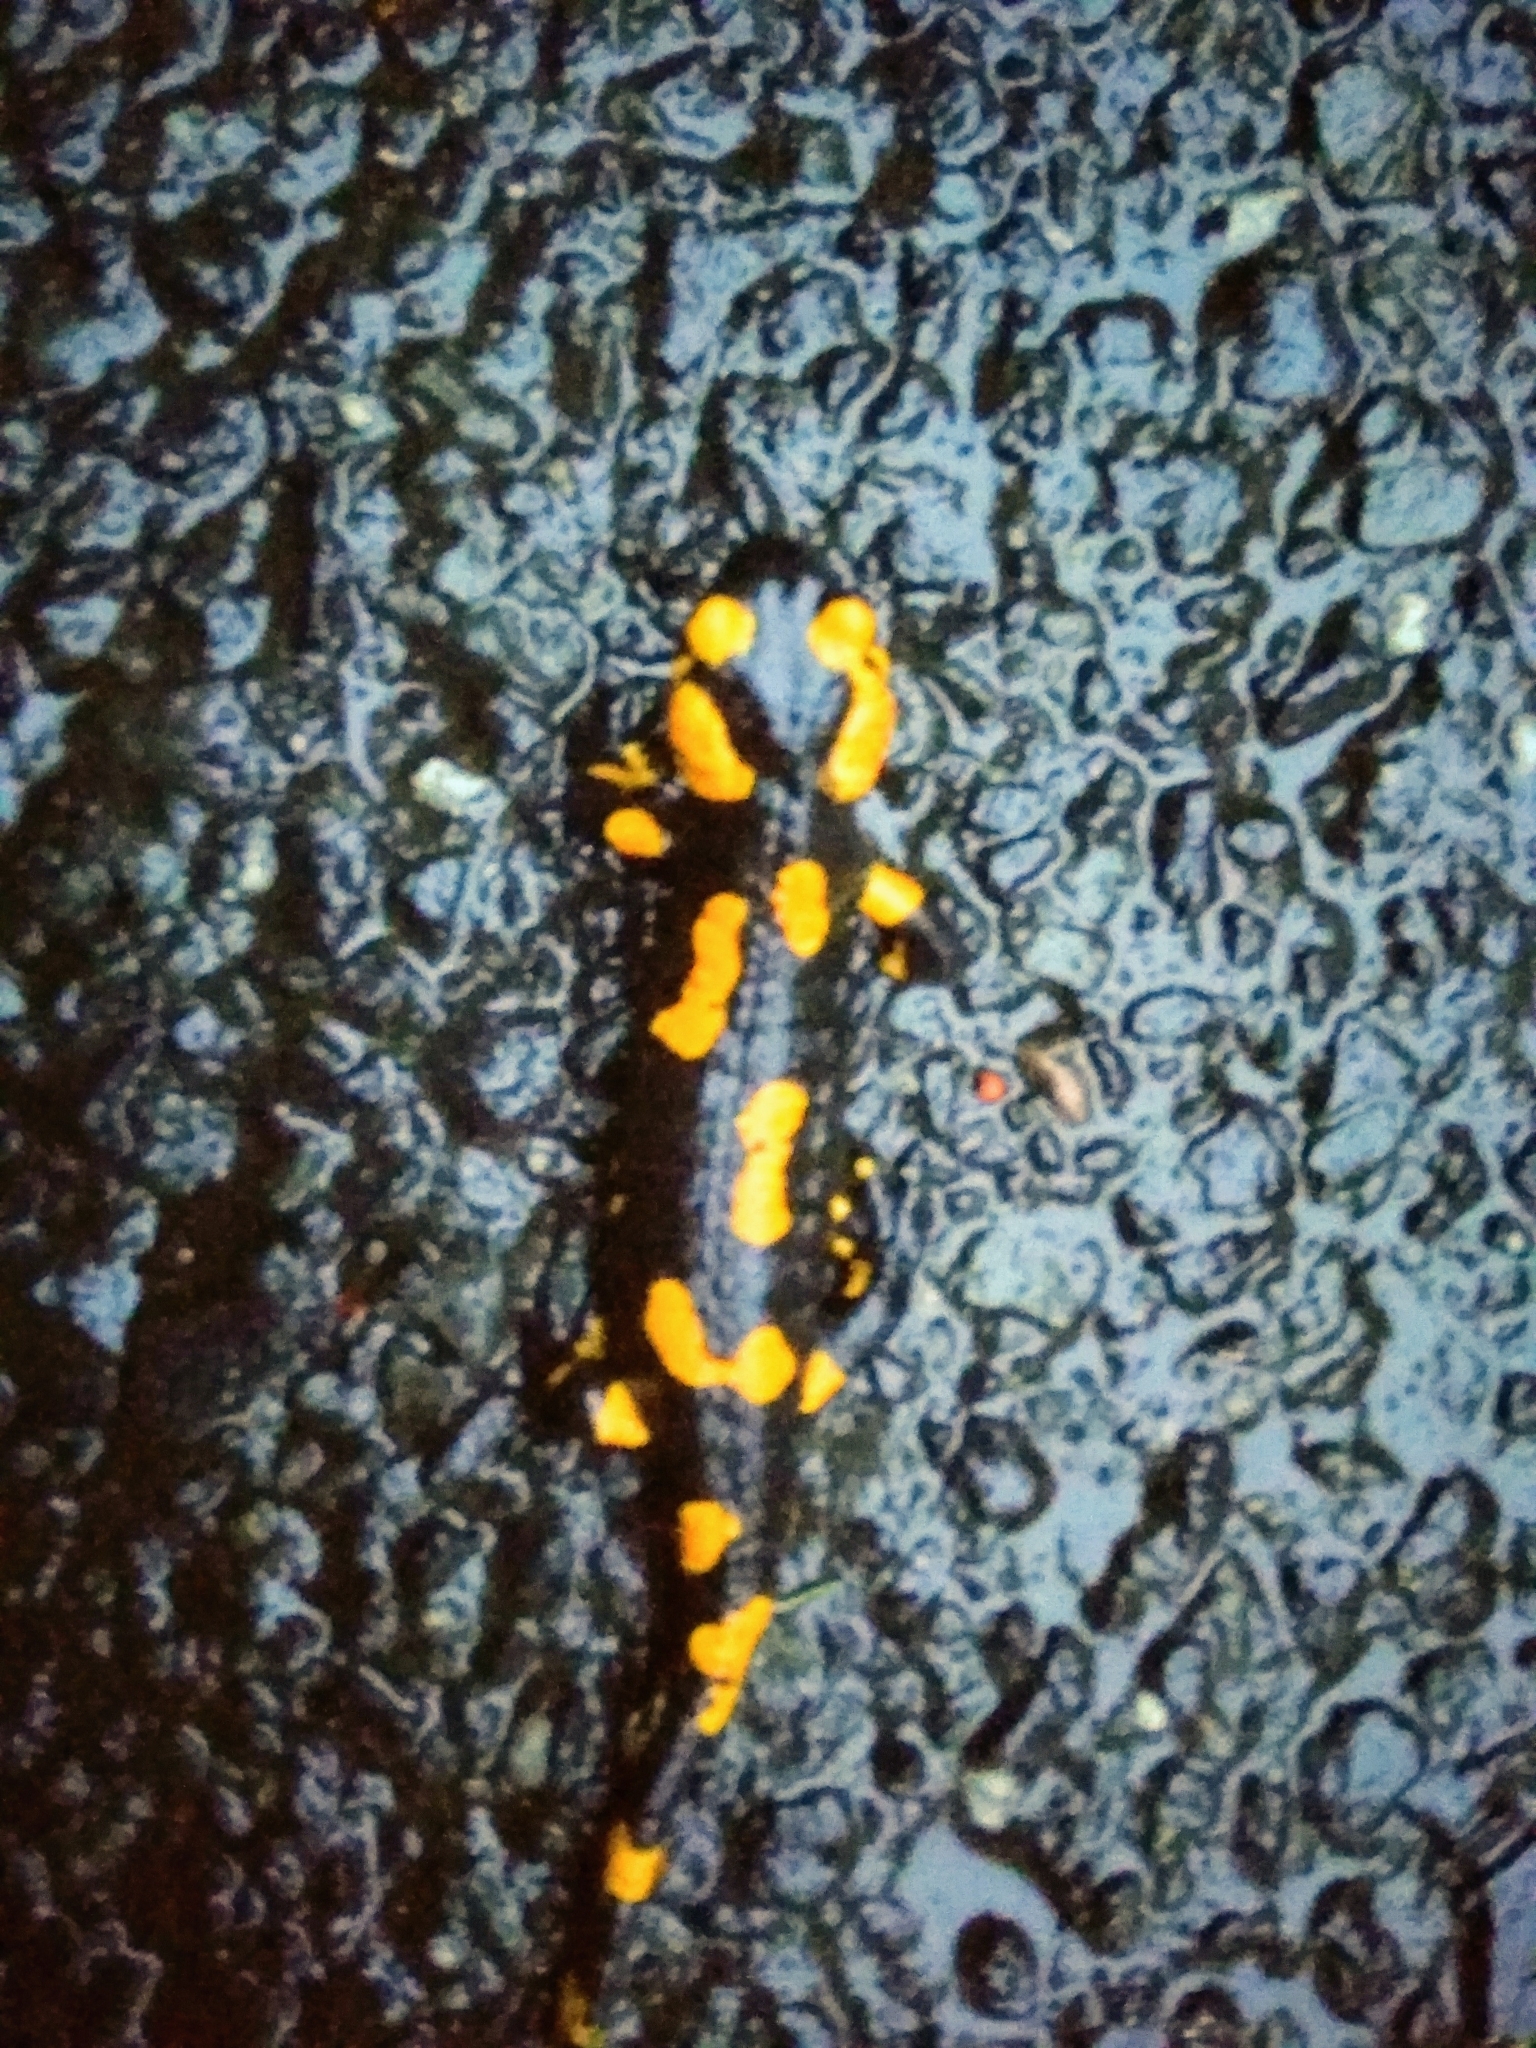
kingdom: Animalia
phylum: Chordata
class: Amphibia
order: Caudata
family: Salamandridae
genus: Salamandra
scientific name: Salamandra salamandra
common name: Fire salamander
